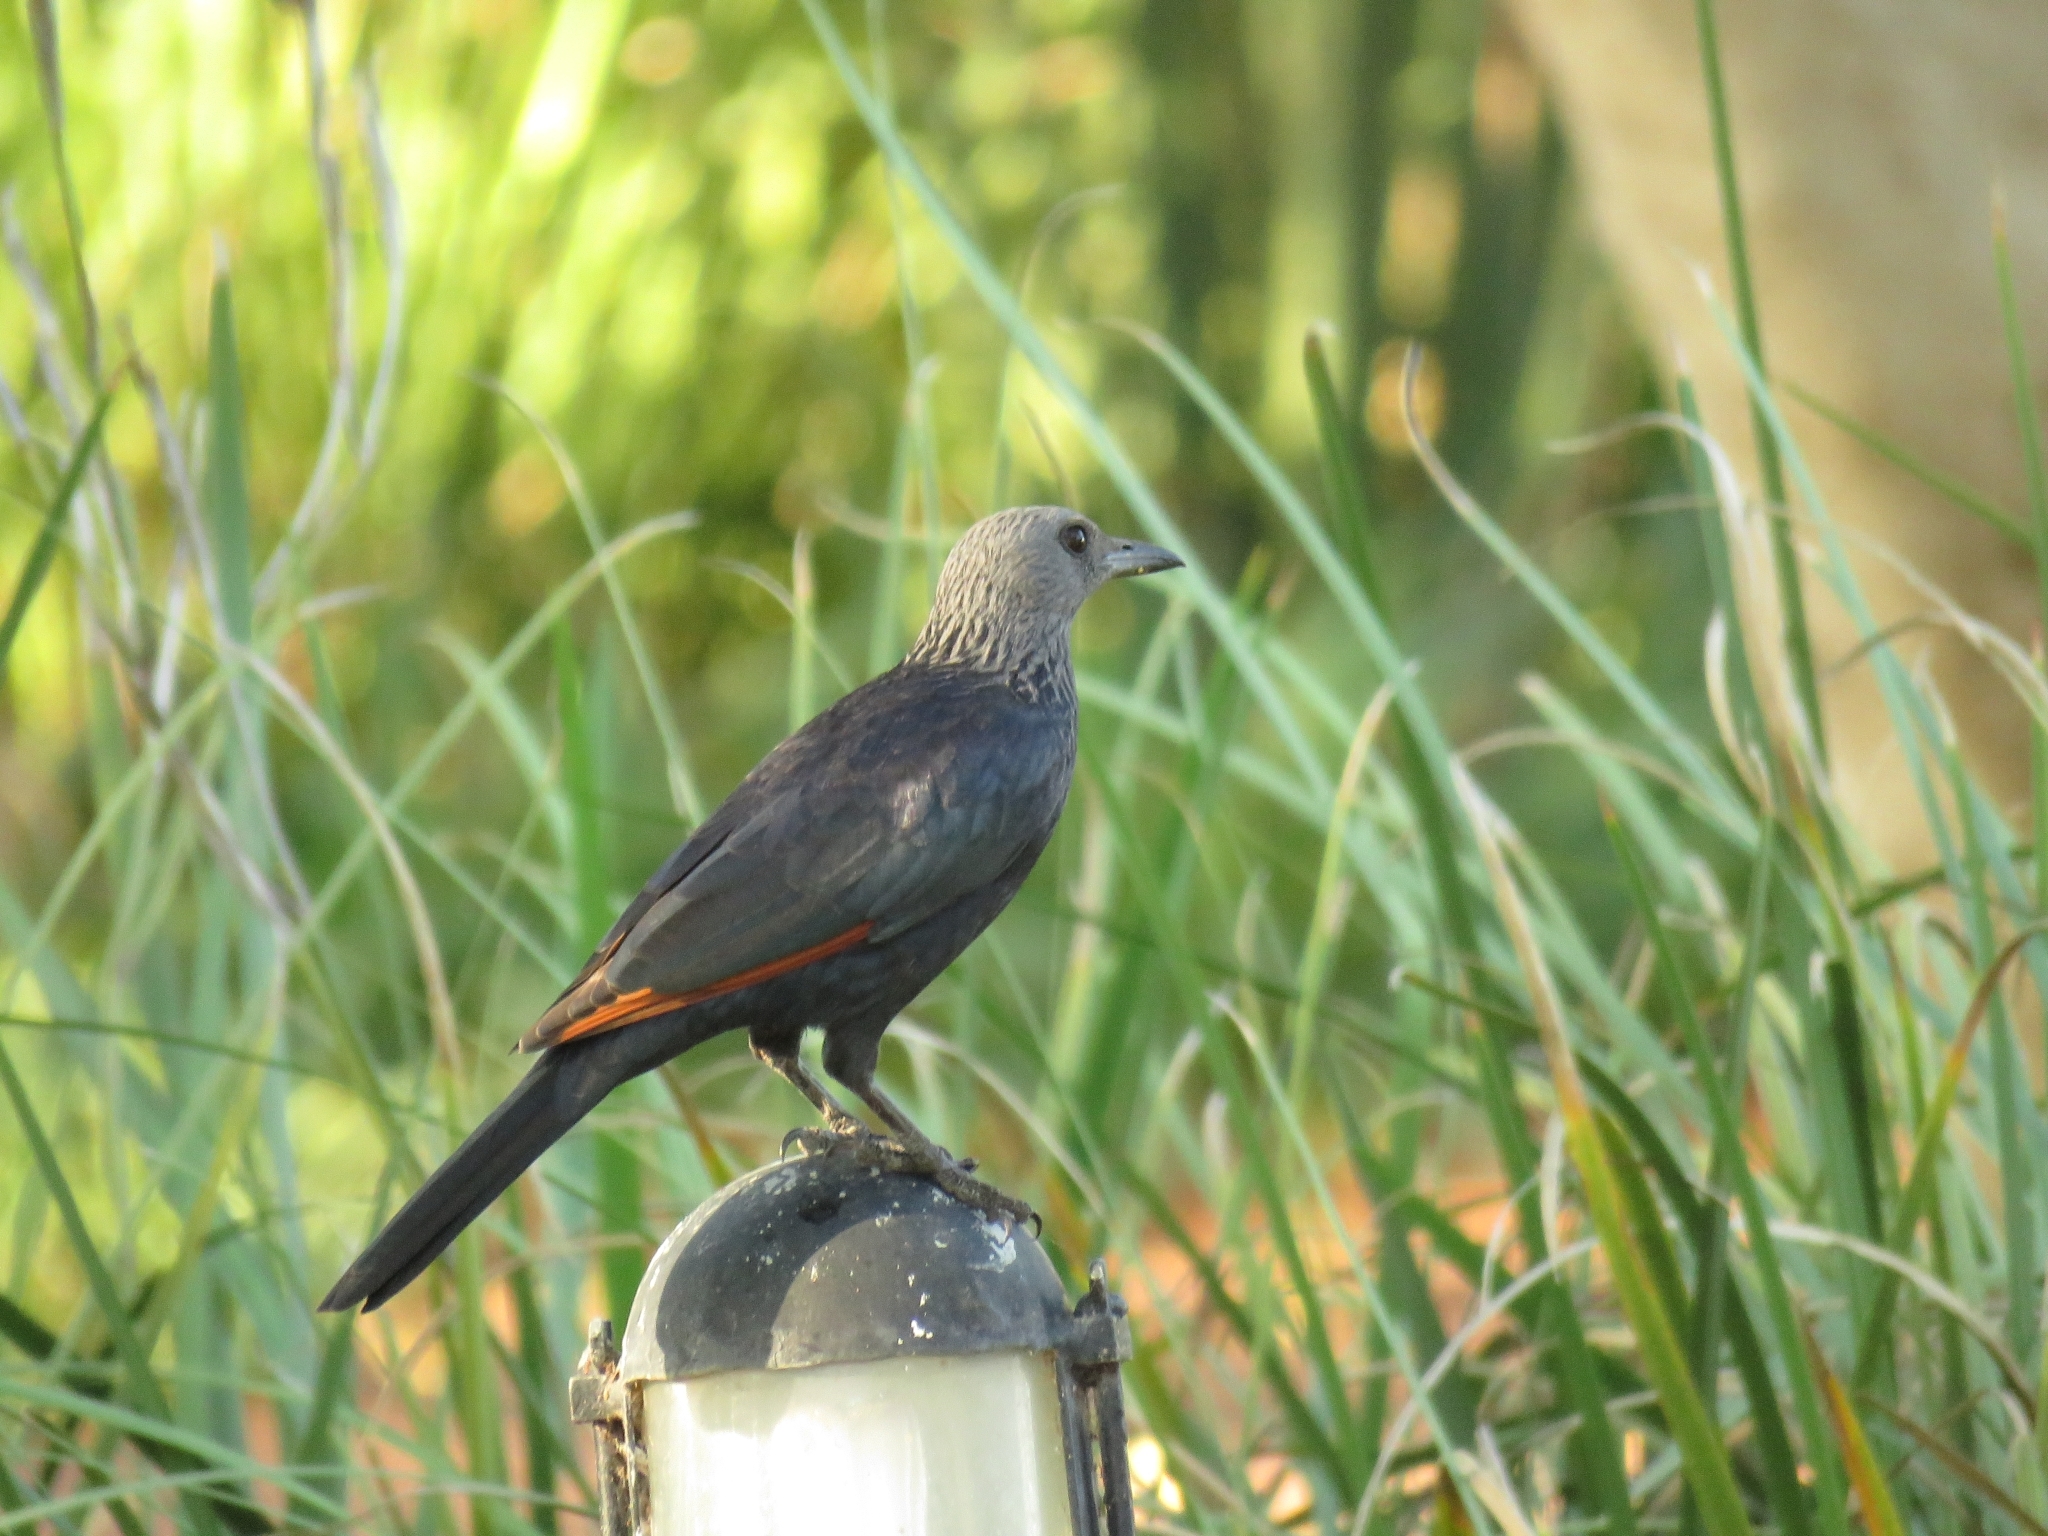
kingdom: Animalia
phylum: Chordata
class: Aves
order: Passeriformes
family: Sturnidae
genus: Onychognathus
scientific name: Onychognathus morio
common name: Red-winged starling
